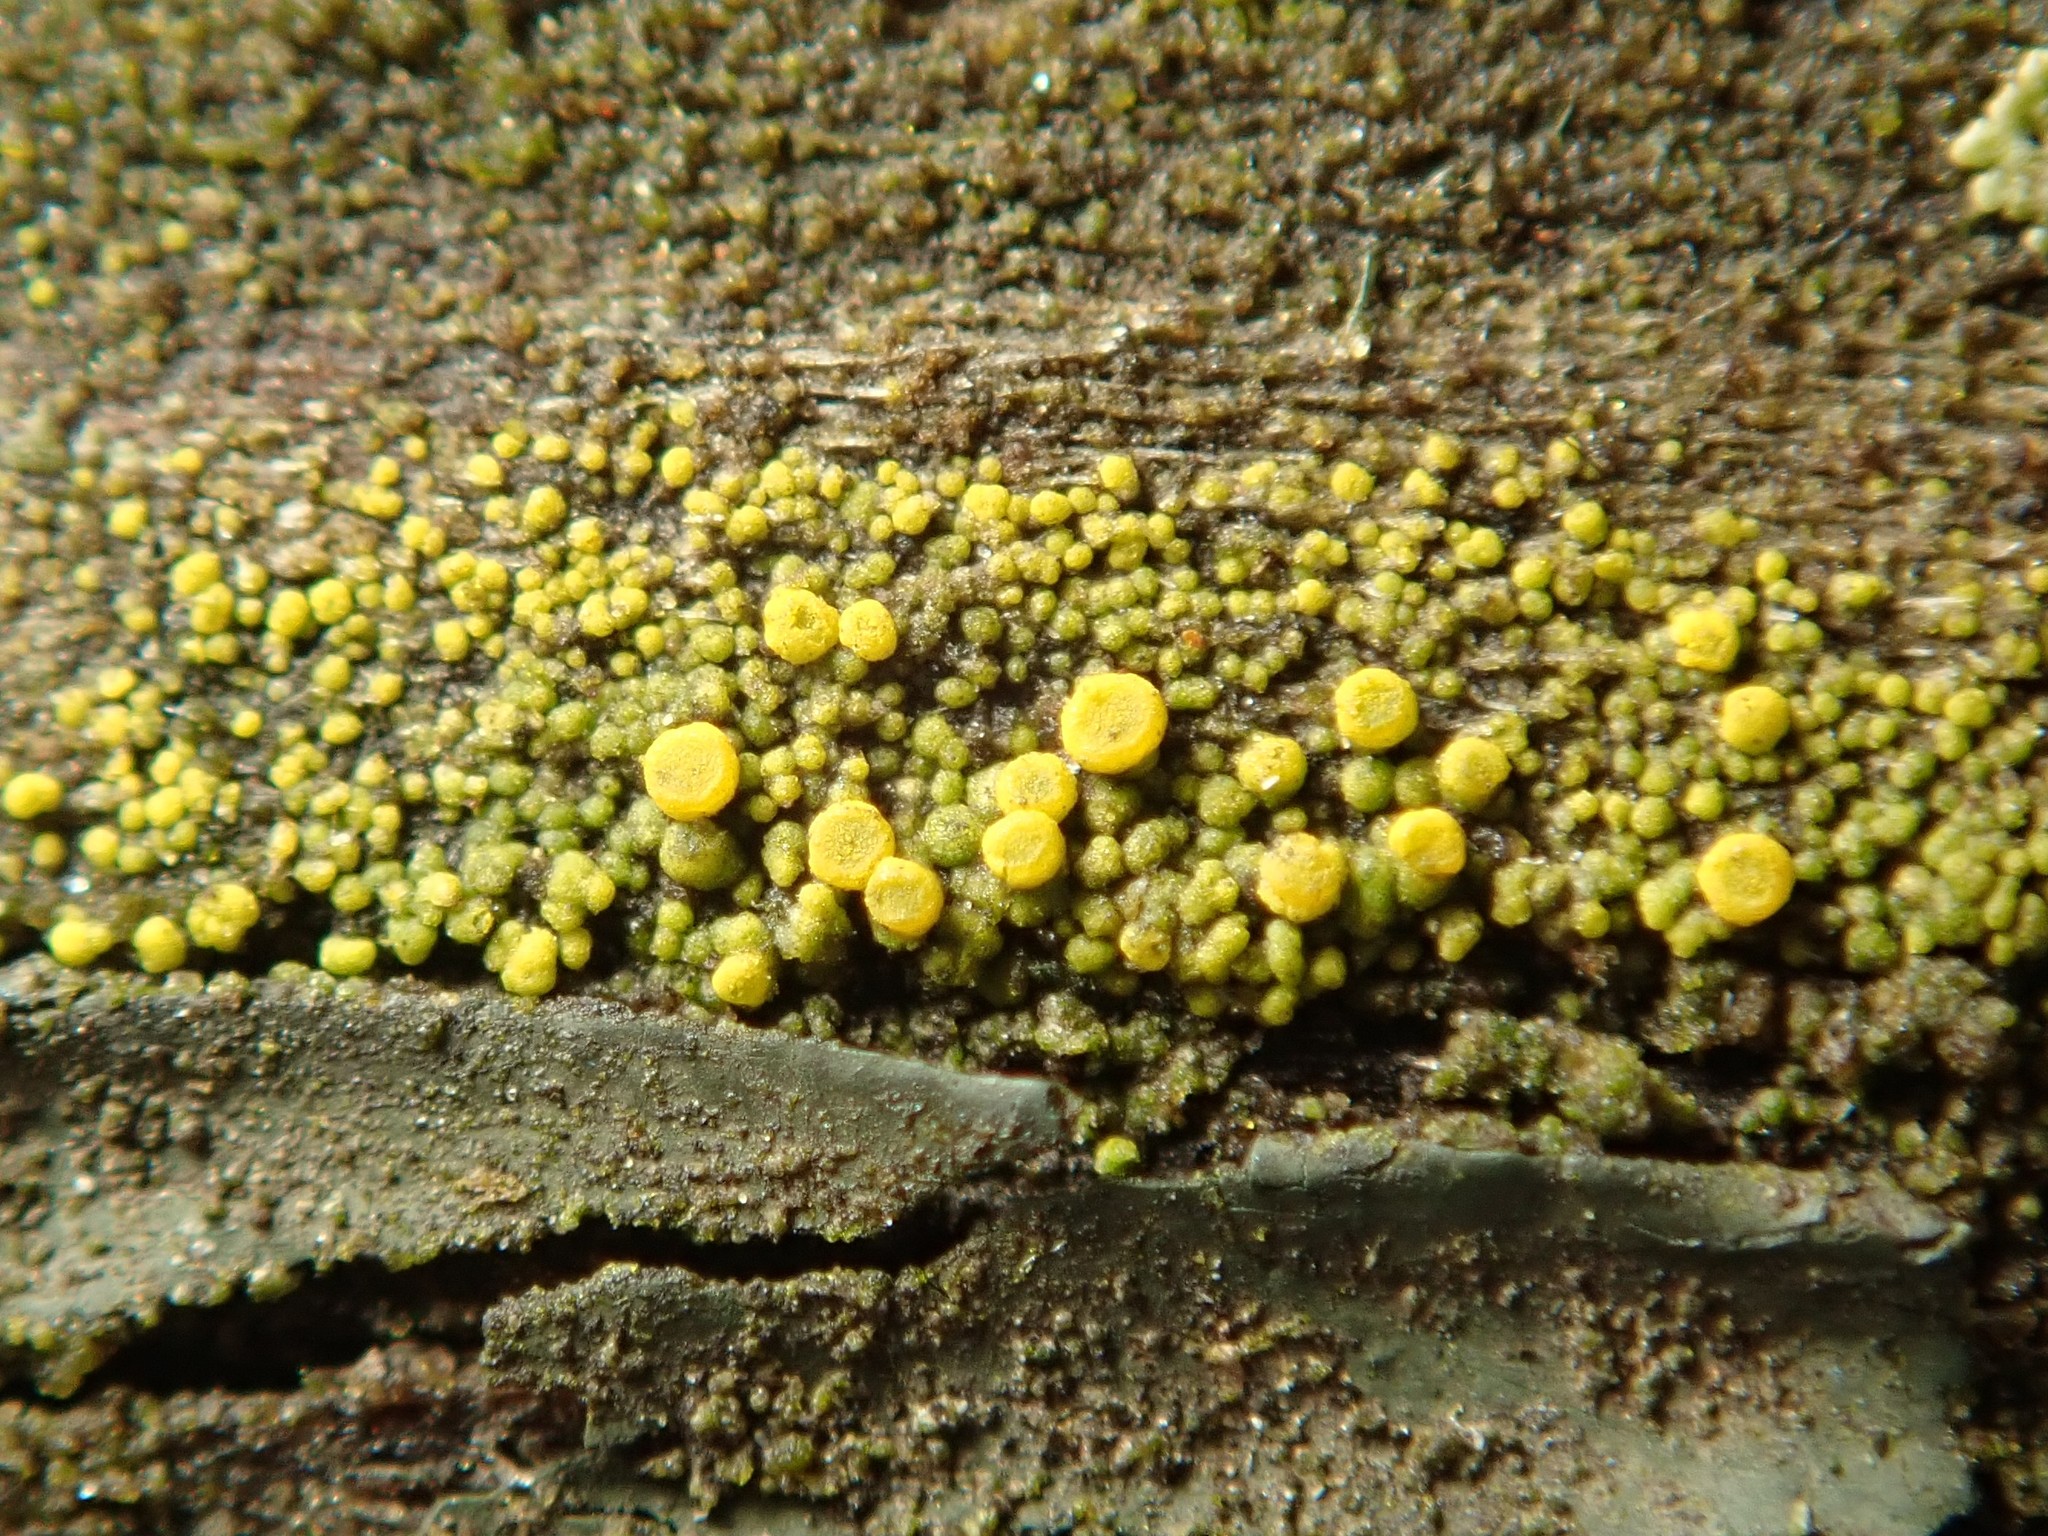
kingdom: Fungi
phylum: Ascomycota
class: Candelariomycetes
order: Candelariales
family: Candelariaceae
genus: Candelariella
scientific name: Candelariella vitellina
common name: Common goldspeck
